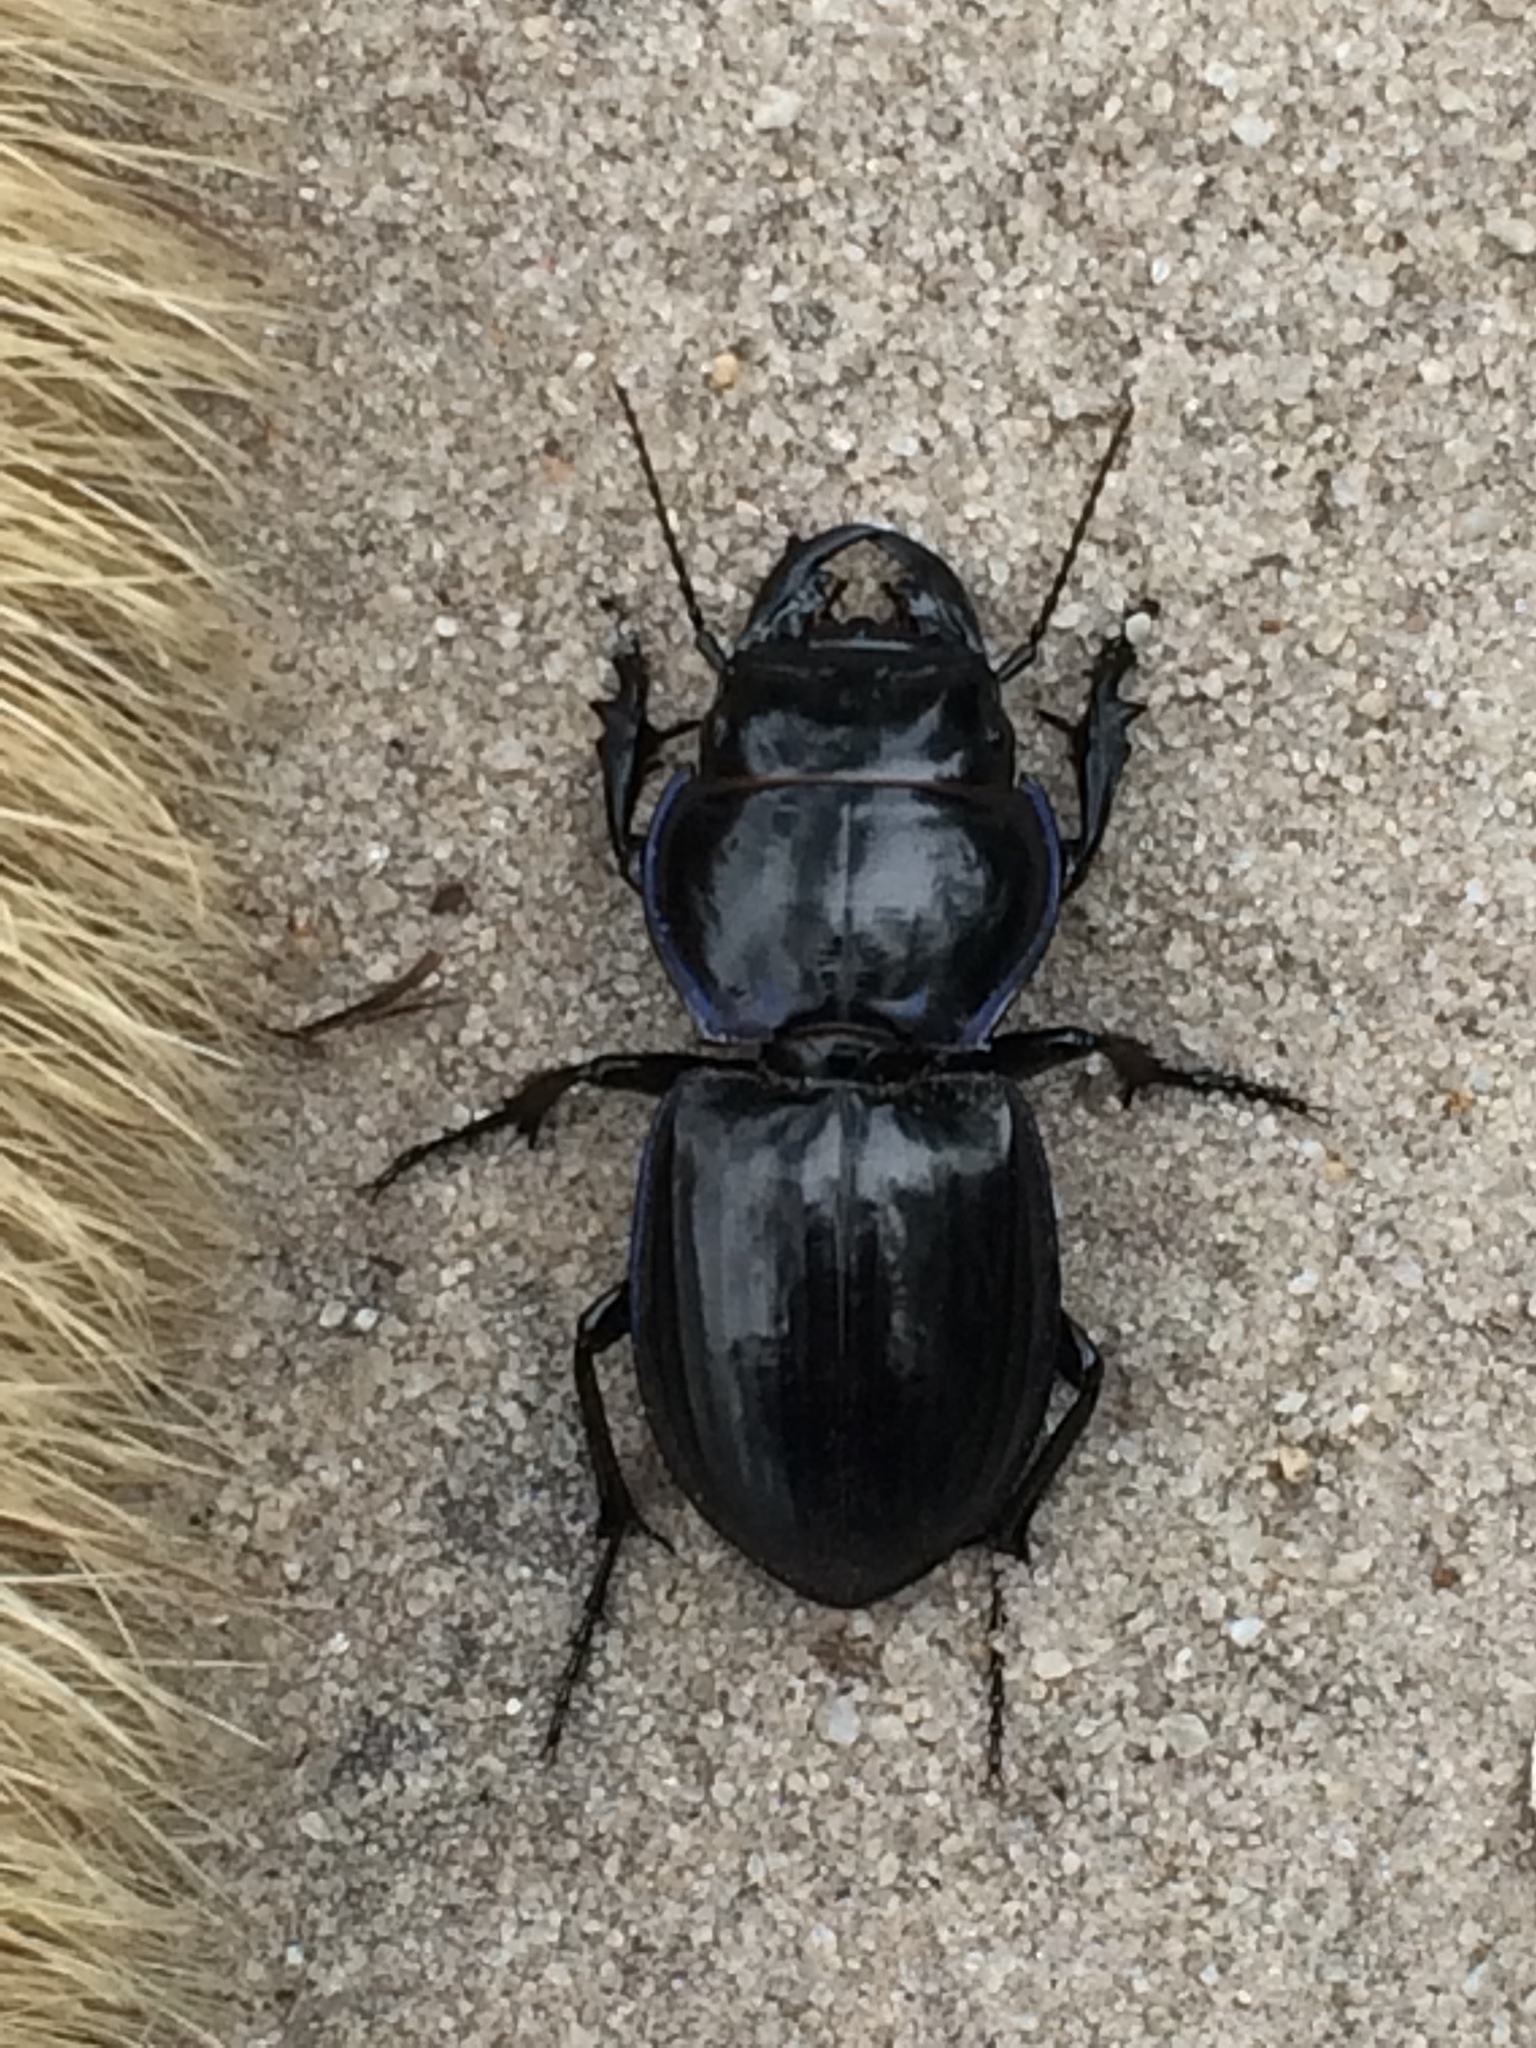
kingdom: Animalia
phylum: Arthropoda
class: Insecta
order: Coleoptera
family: Carabidae
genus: Pasimachus
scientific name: Pasimachus sublaevis
